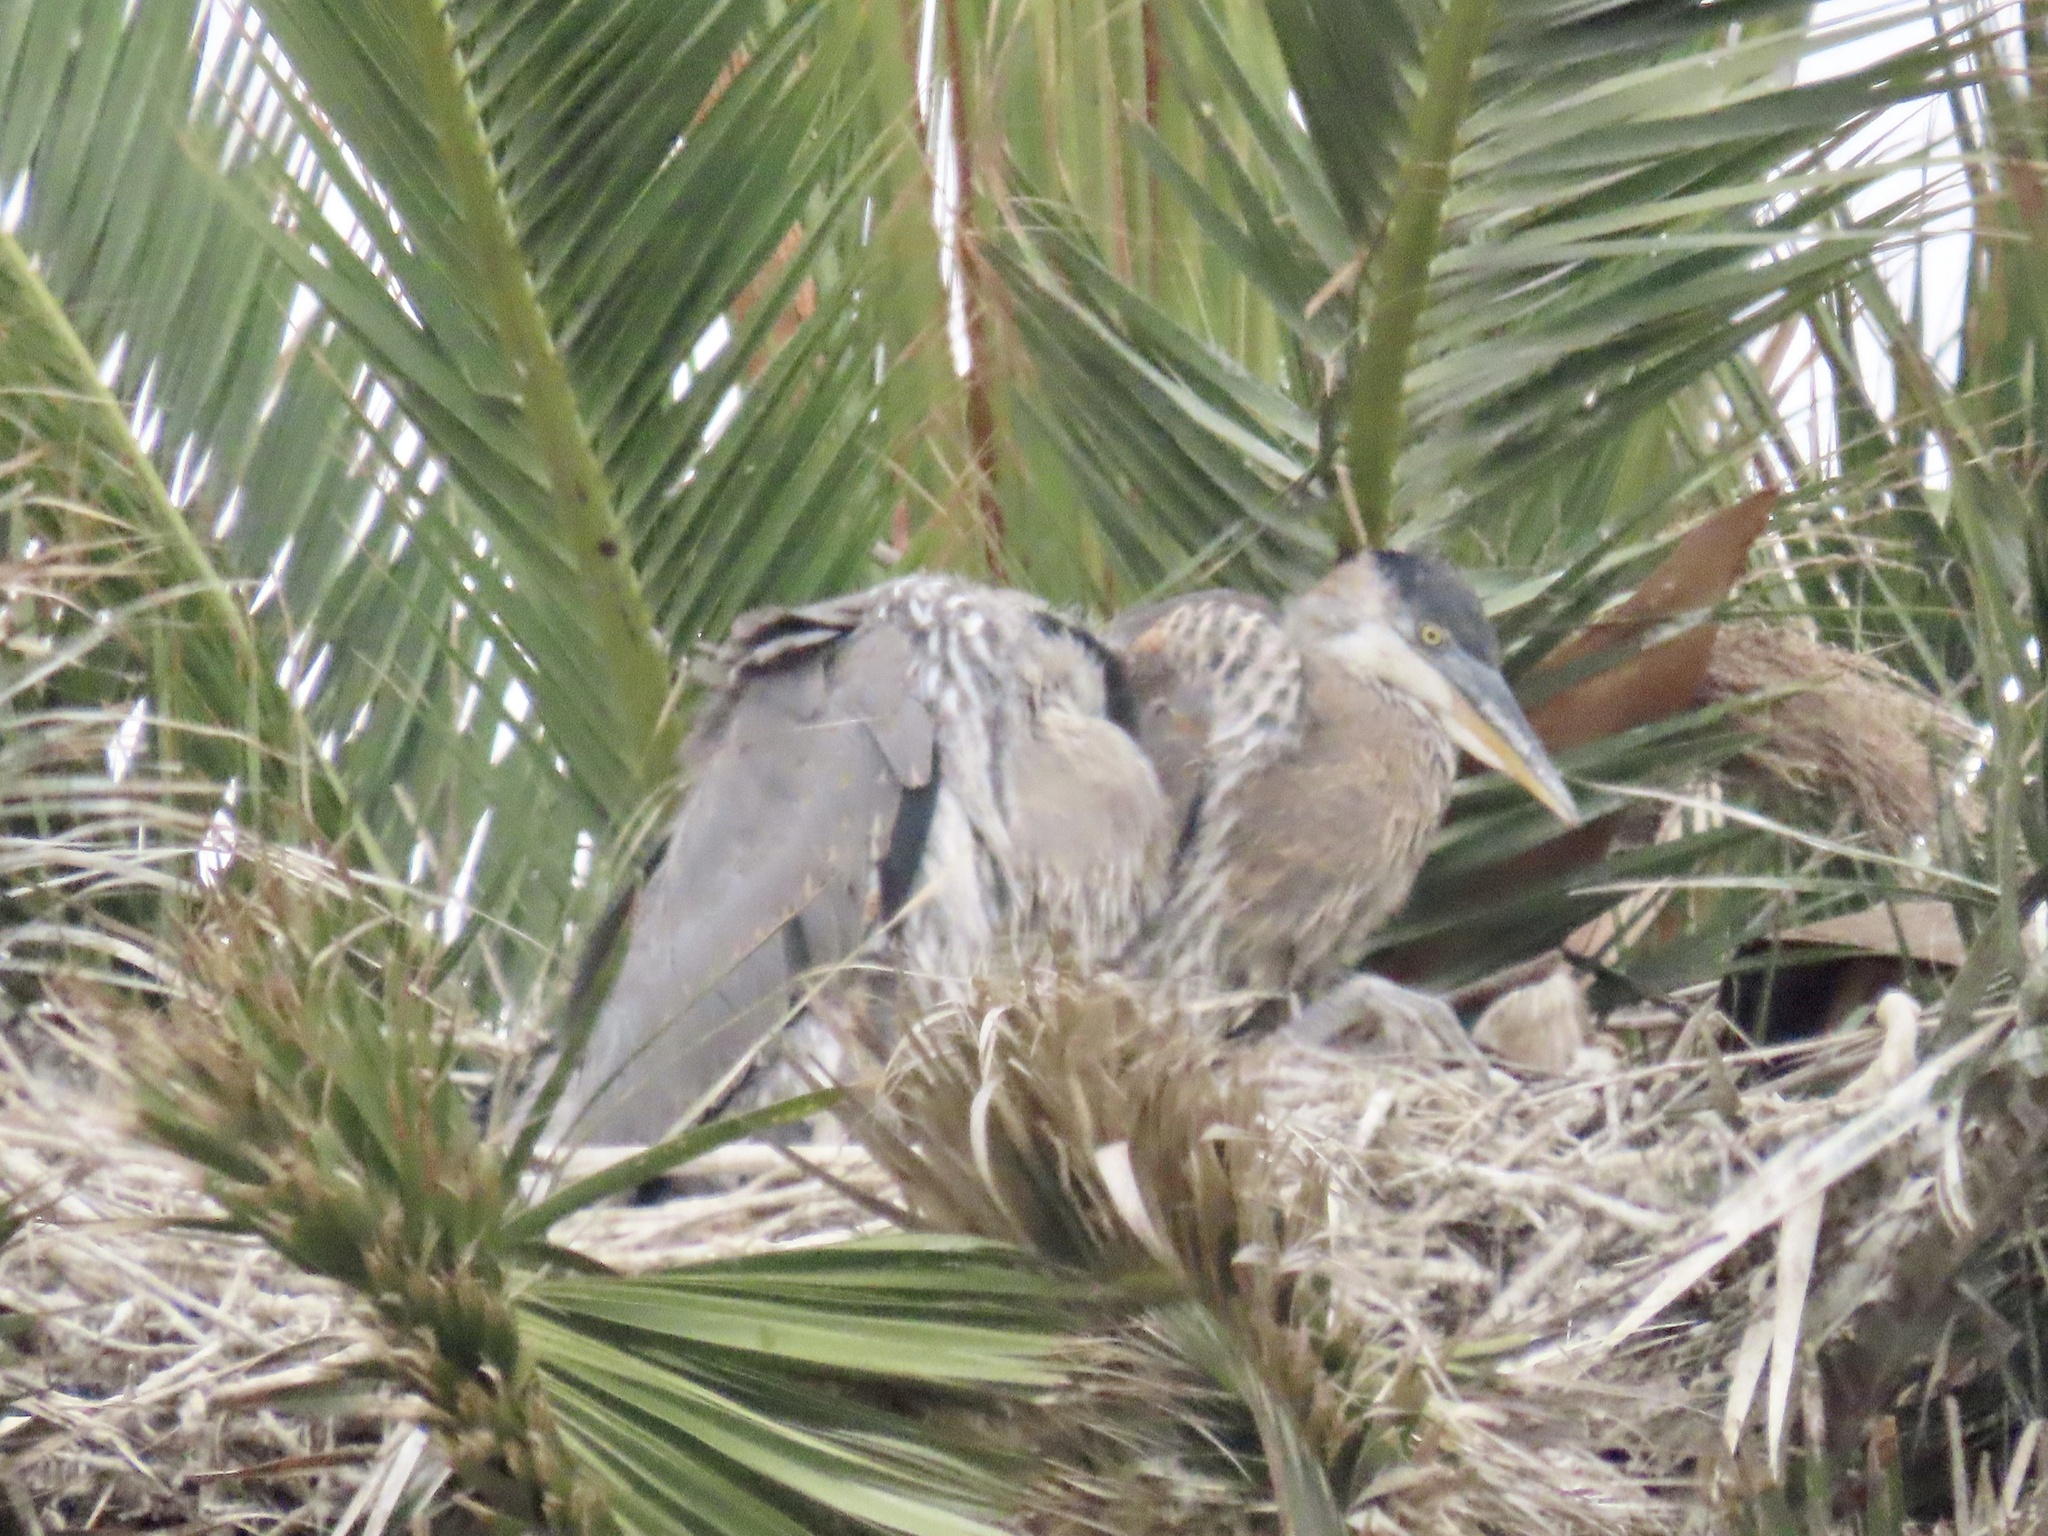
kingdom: Animalia
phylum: Chordata
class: Aves
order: Pelecaniformes
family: Ardeidae
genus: Ardea
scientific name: Ardea herodias
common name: Great blue heron
